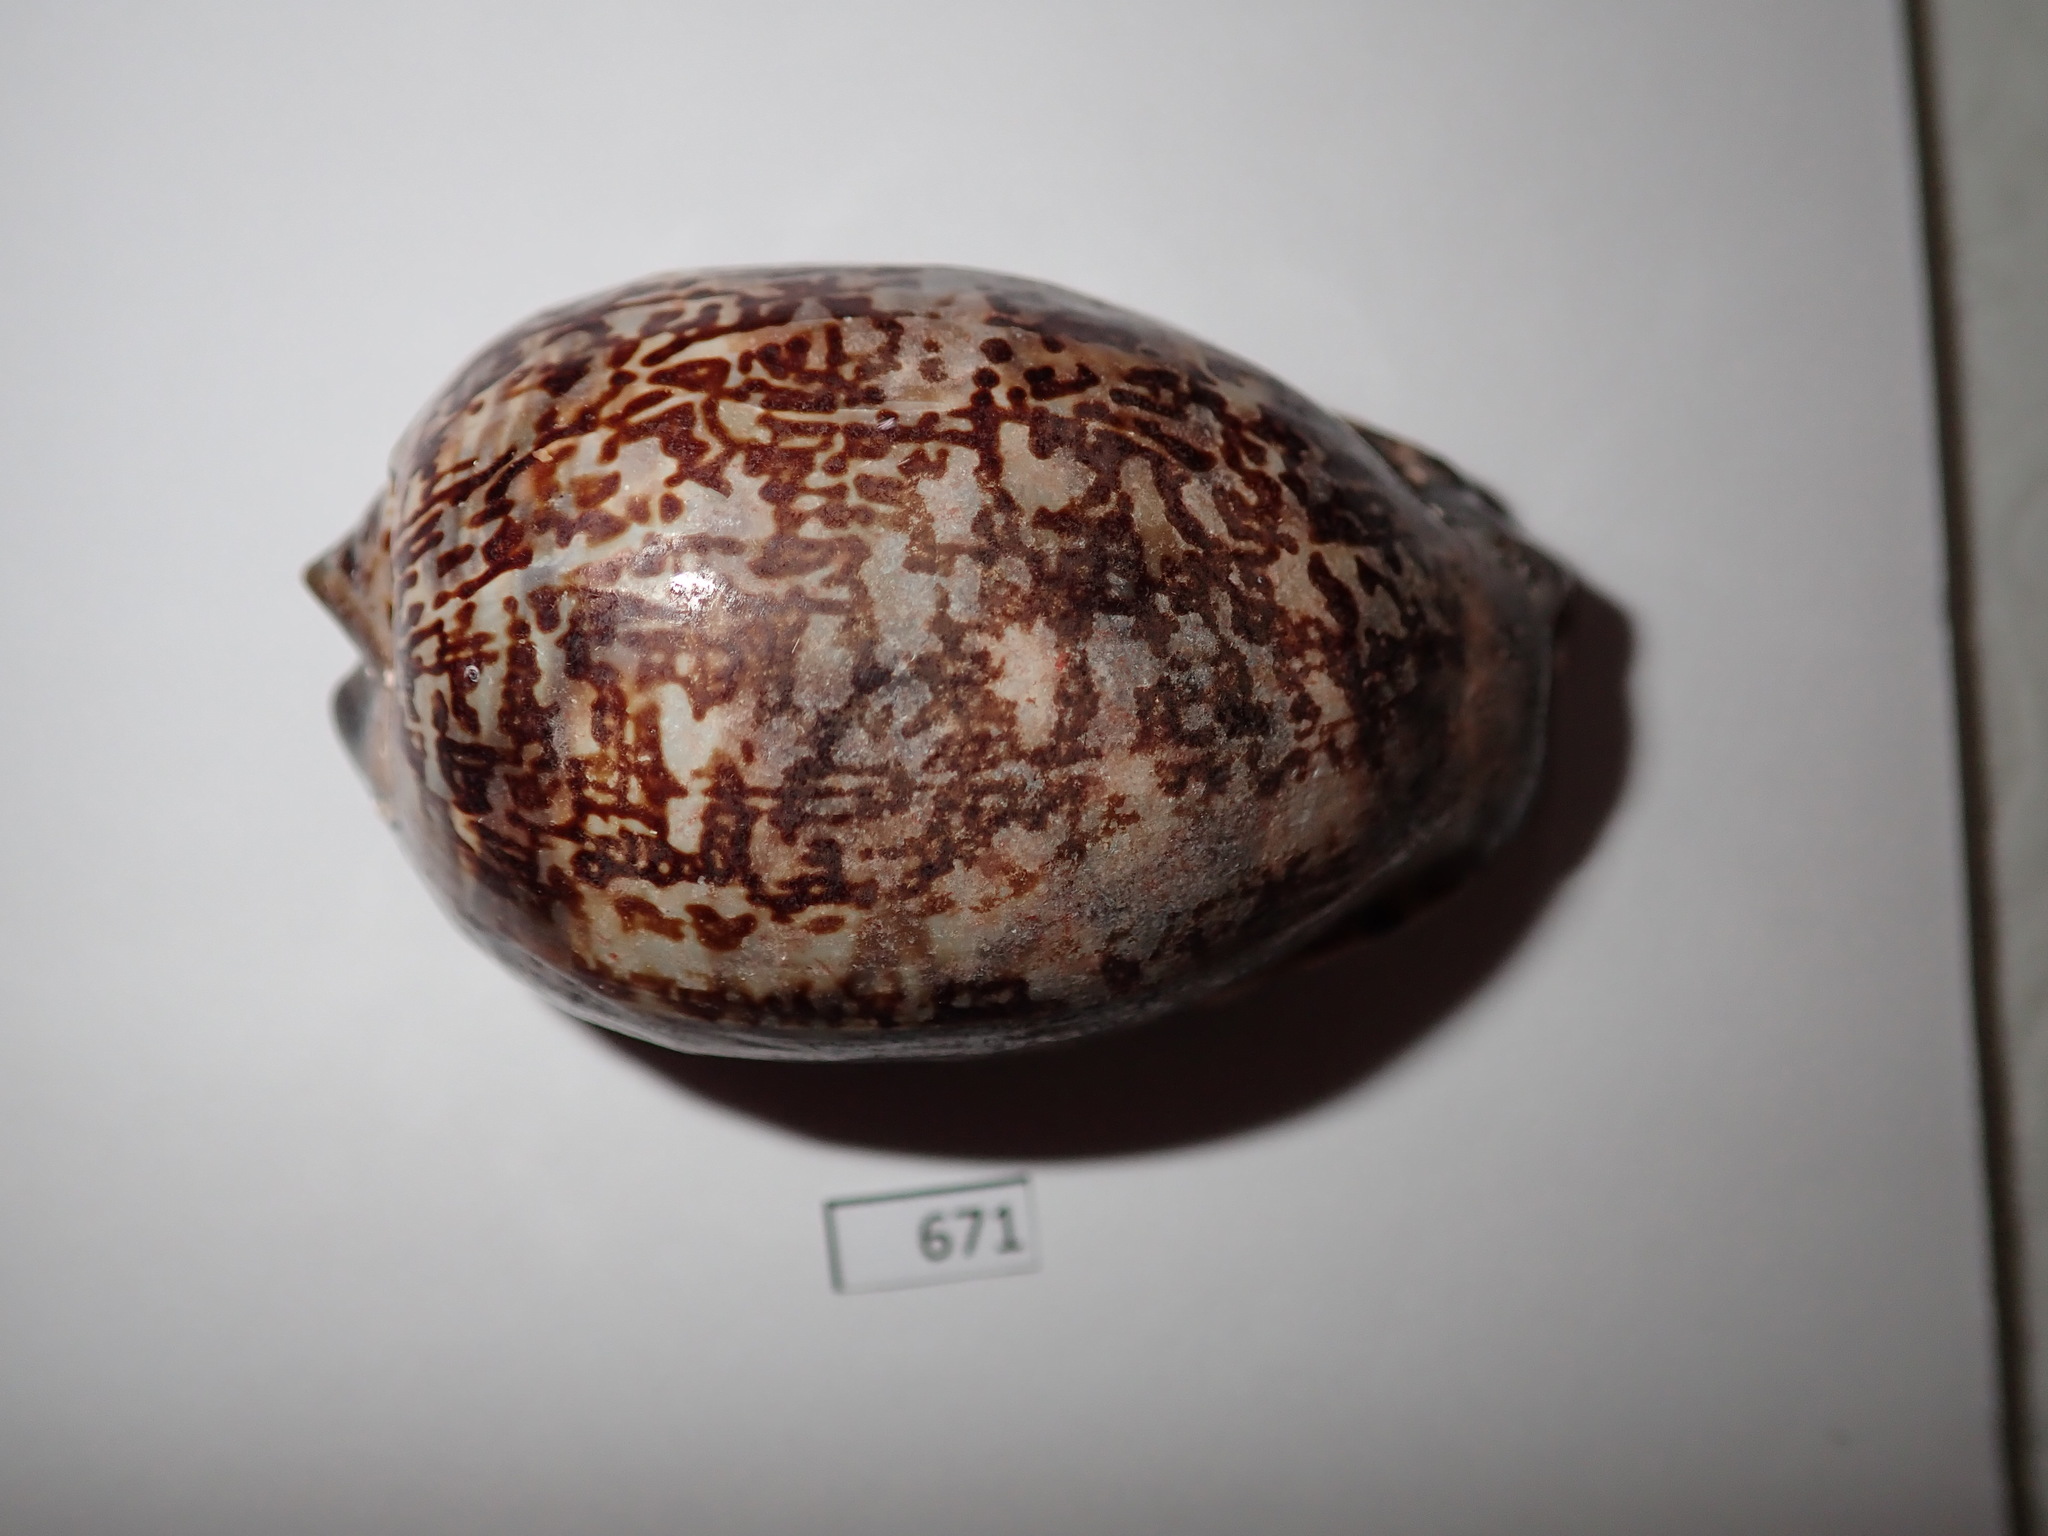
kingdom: Animalia
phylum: Mollusca
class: Gastropoda
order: Littorinimorpha
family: Cypraeidae
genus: Mauritia
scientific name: Mauritia arabica
